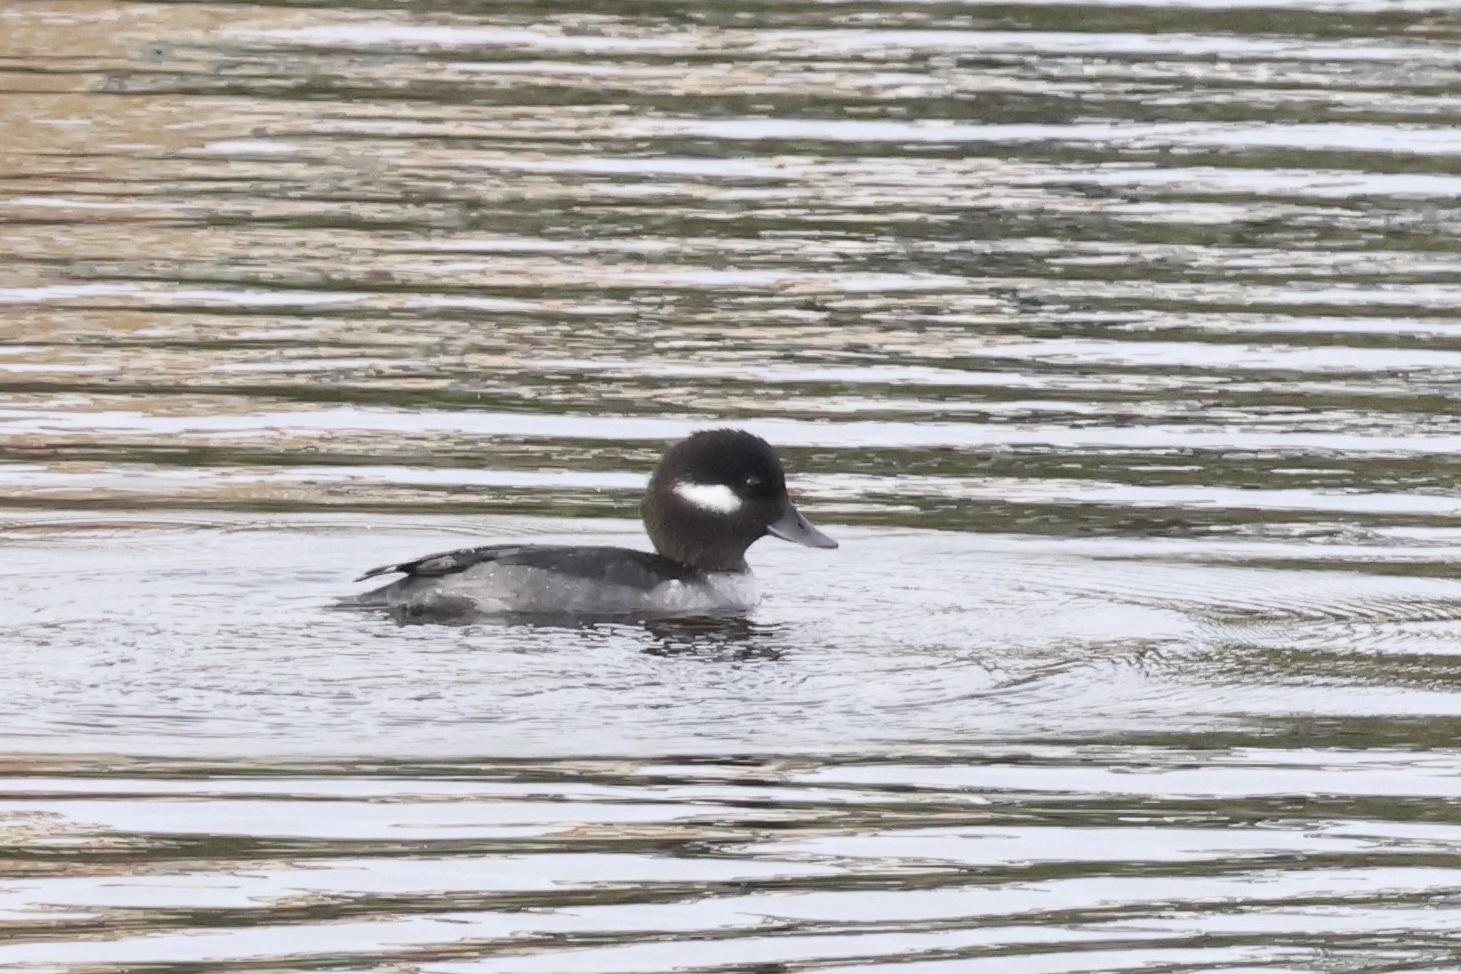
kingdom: Animalia
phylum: Chordata
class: Aves
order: Anseriformes
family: Anatidae
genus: Bucephala
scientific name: Bucephala albeola
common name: Bufflehead
